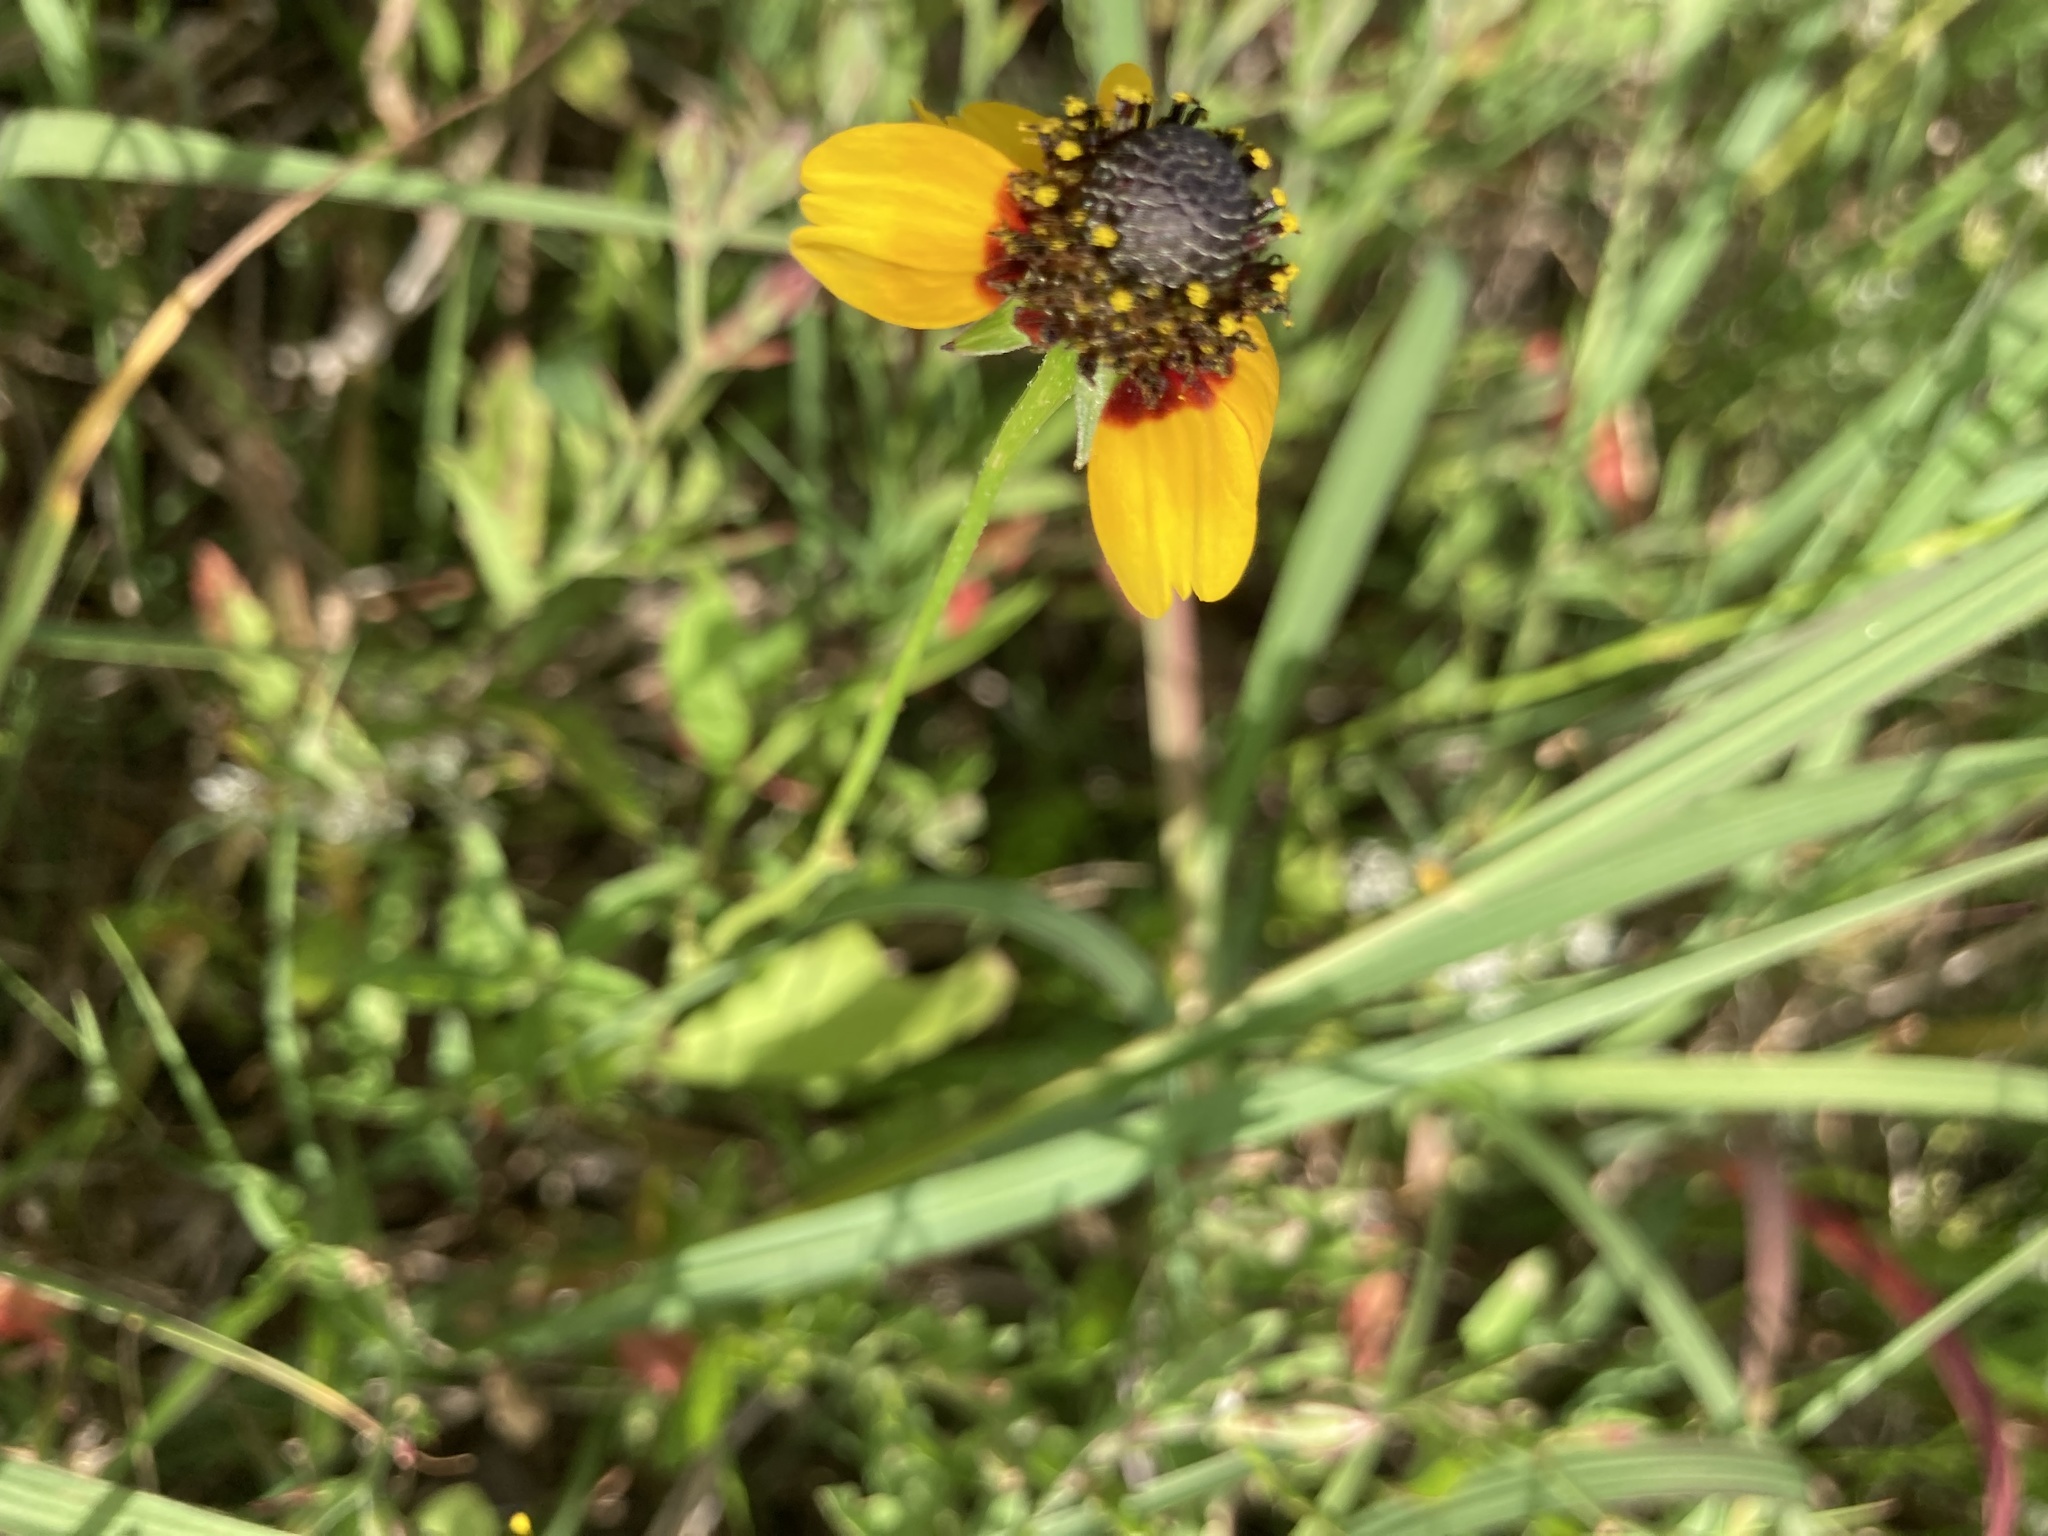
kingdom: Plantae
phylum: Tracheophyta
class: Magnoliopsida
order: Asterales
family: Asteraceae
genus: Rudbeckia
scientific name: Rudbeckia amplexicaulis
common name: Clasping-leaf coneflower
